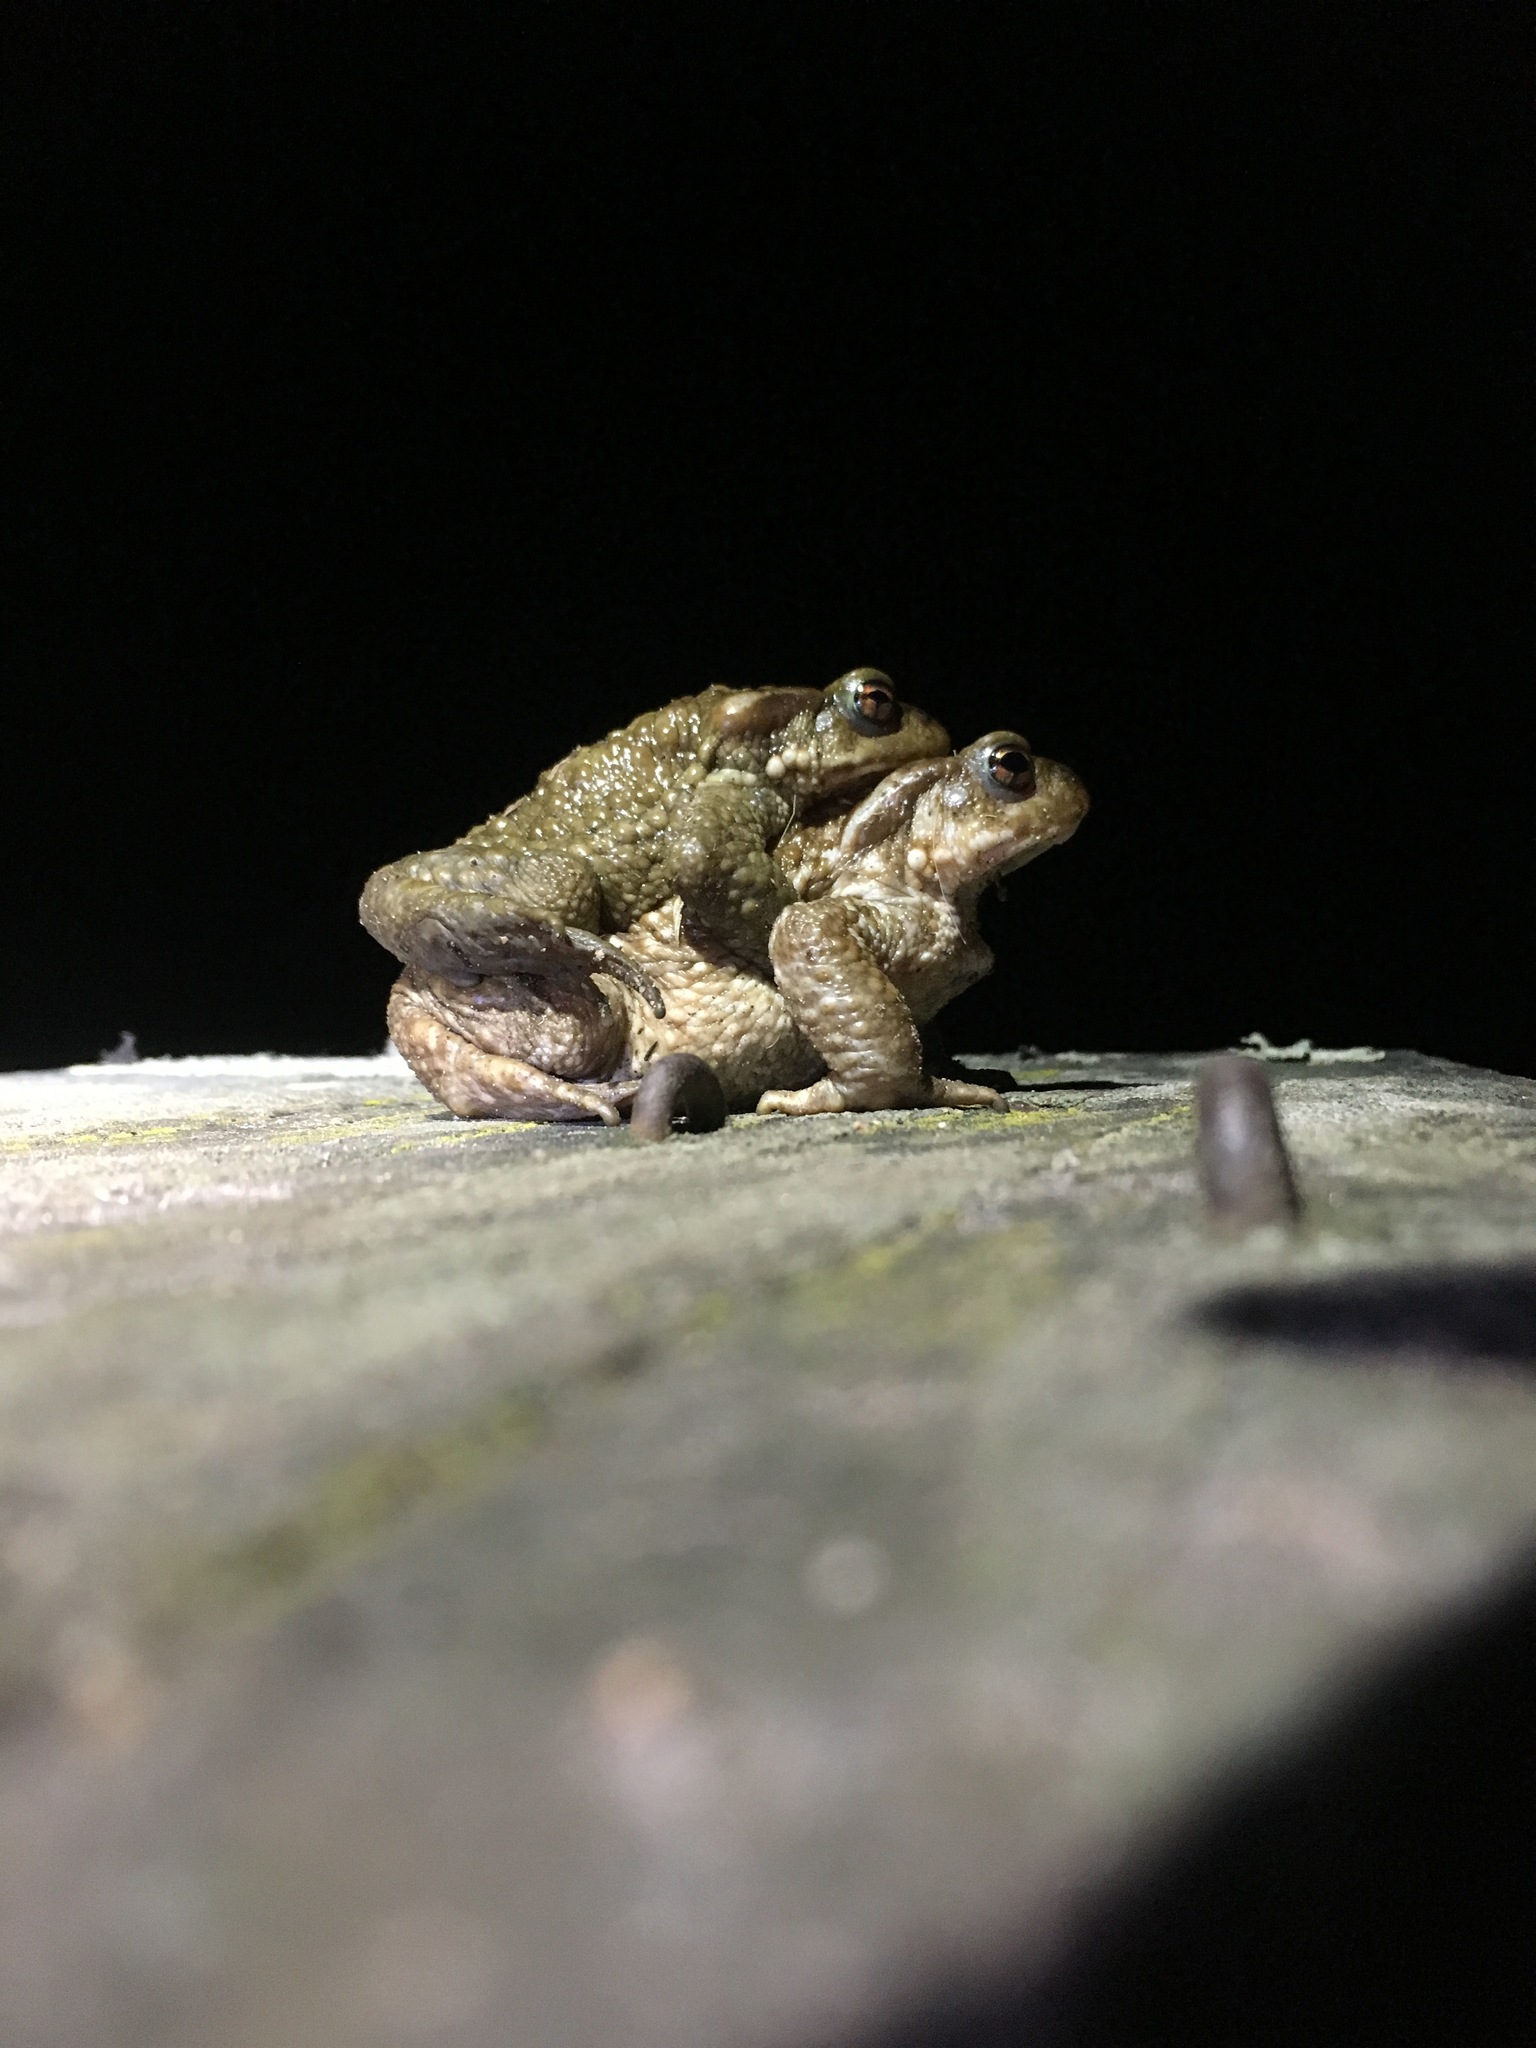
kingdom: Animalia
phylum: Chordata
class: Amphibia
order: Anura
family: Bufonidae
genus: Bufo
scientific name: Bufo spinosus
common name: Western common toad
